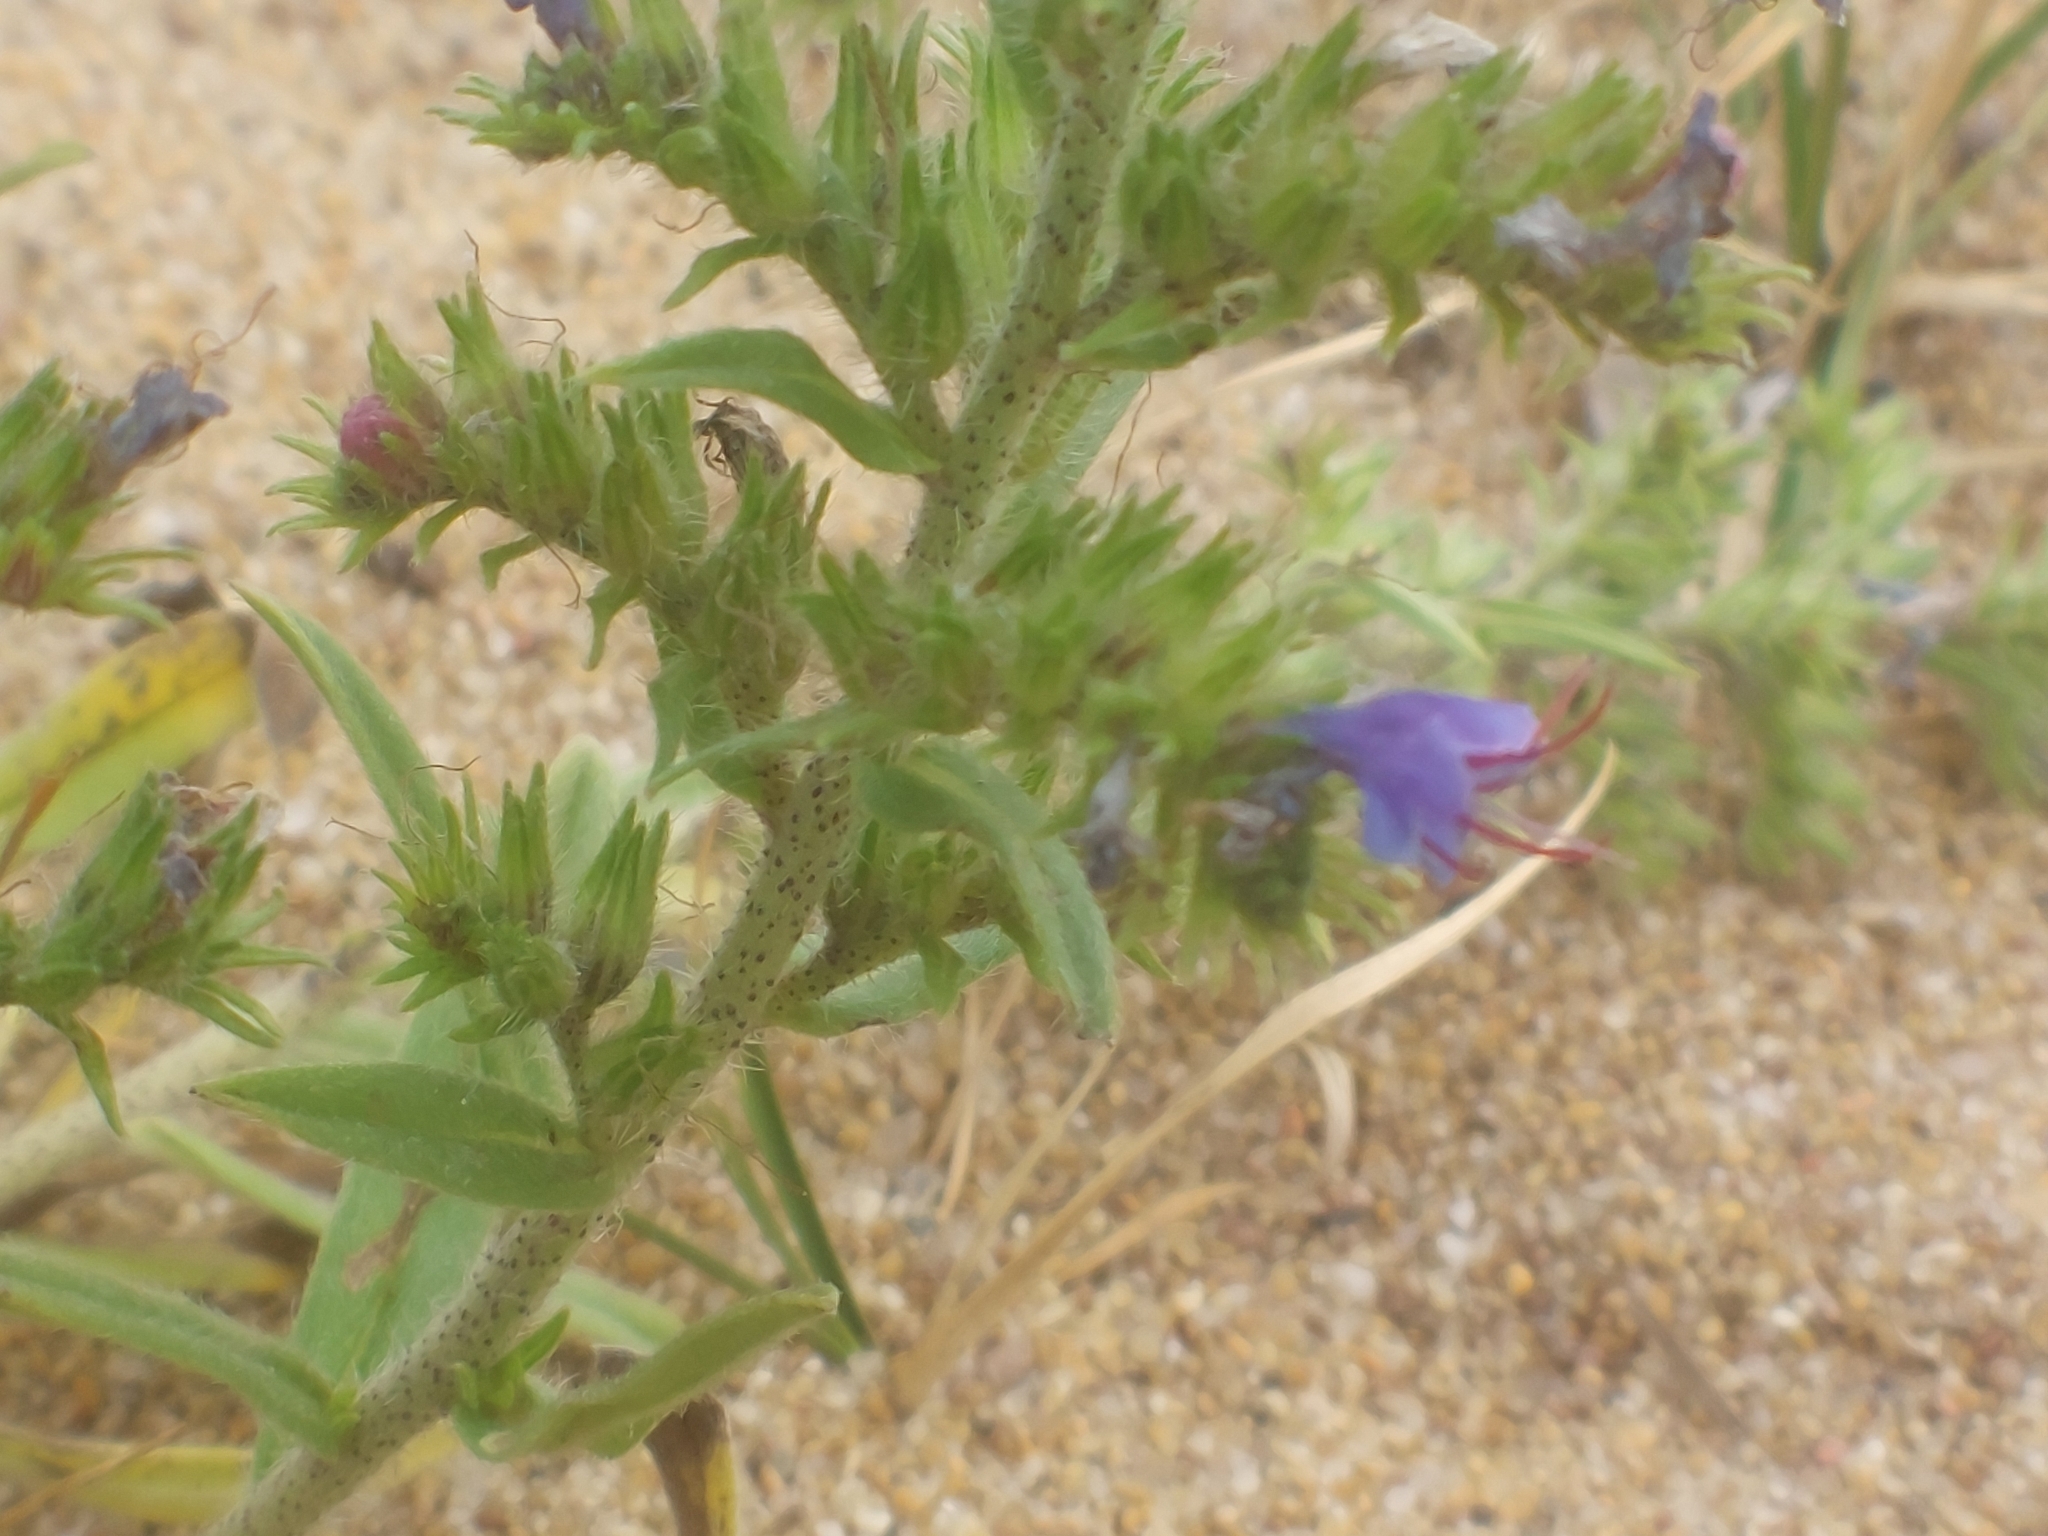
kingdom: Plantae
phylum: Tracheophyta
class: Magnoliopsida
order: Boraginales
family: Boraginaceae
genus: Echium
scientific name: Echium vulgare
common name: Common viper's bugloss
